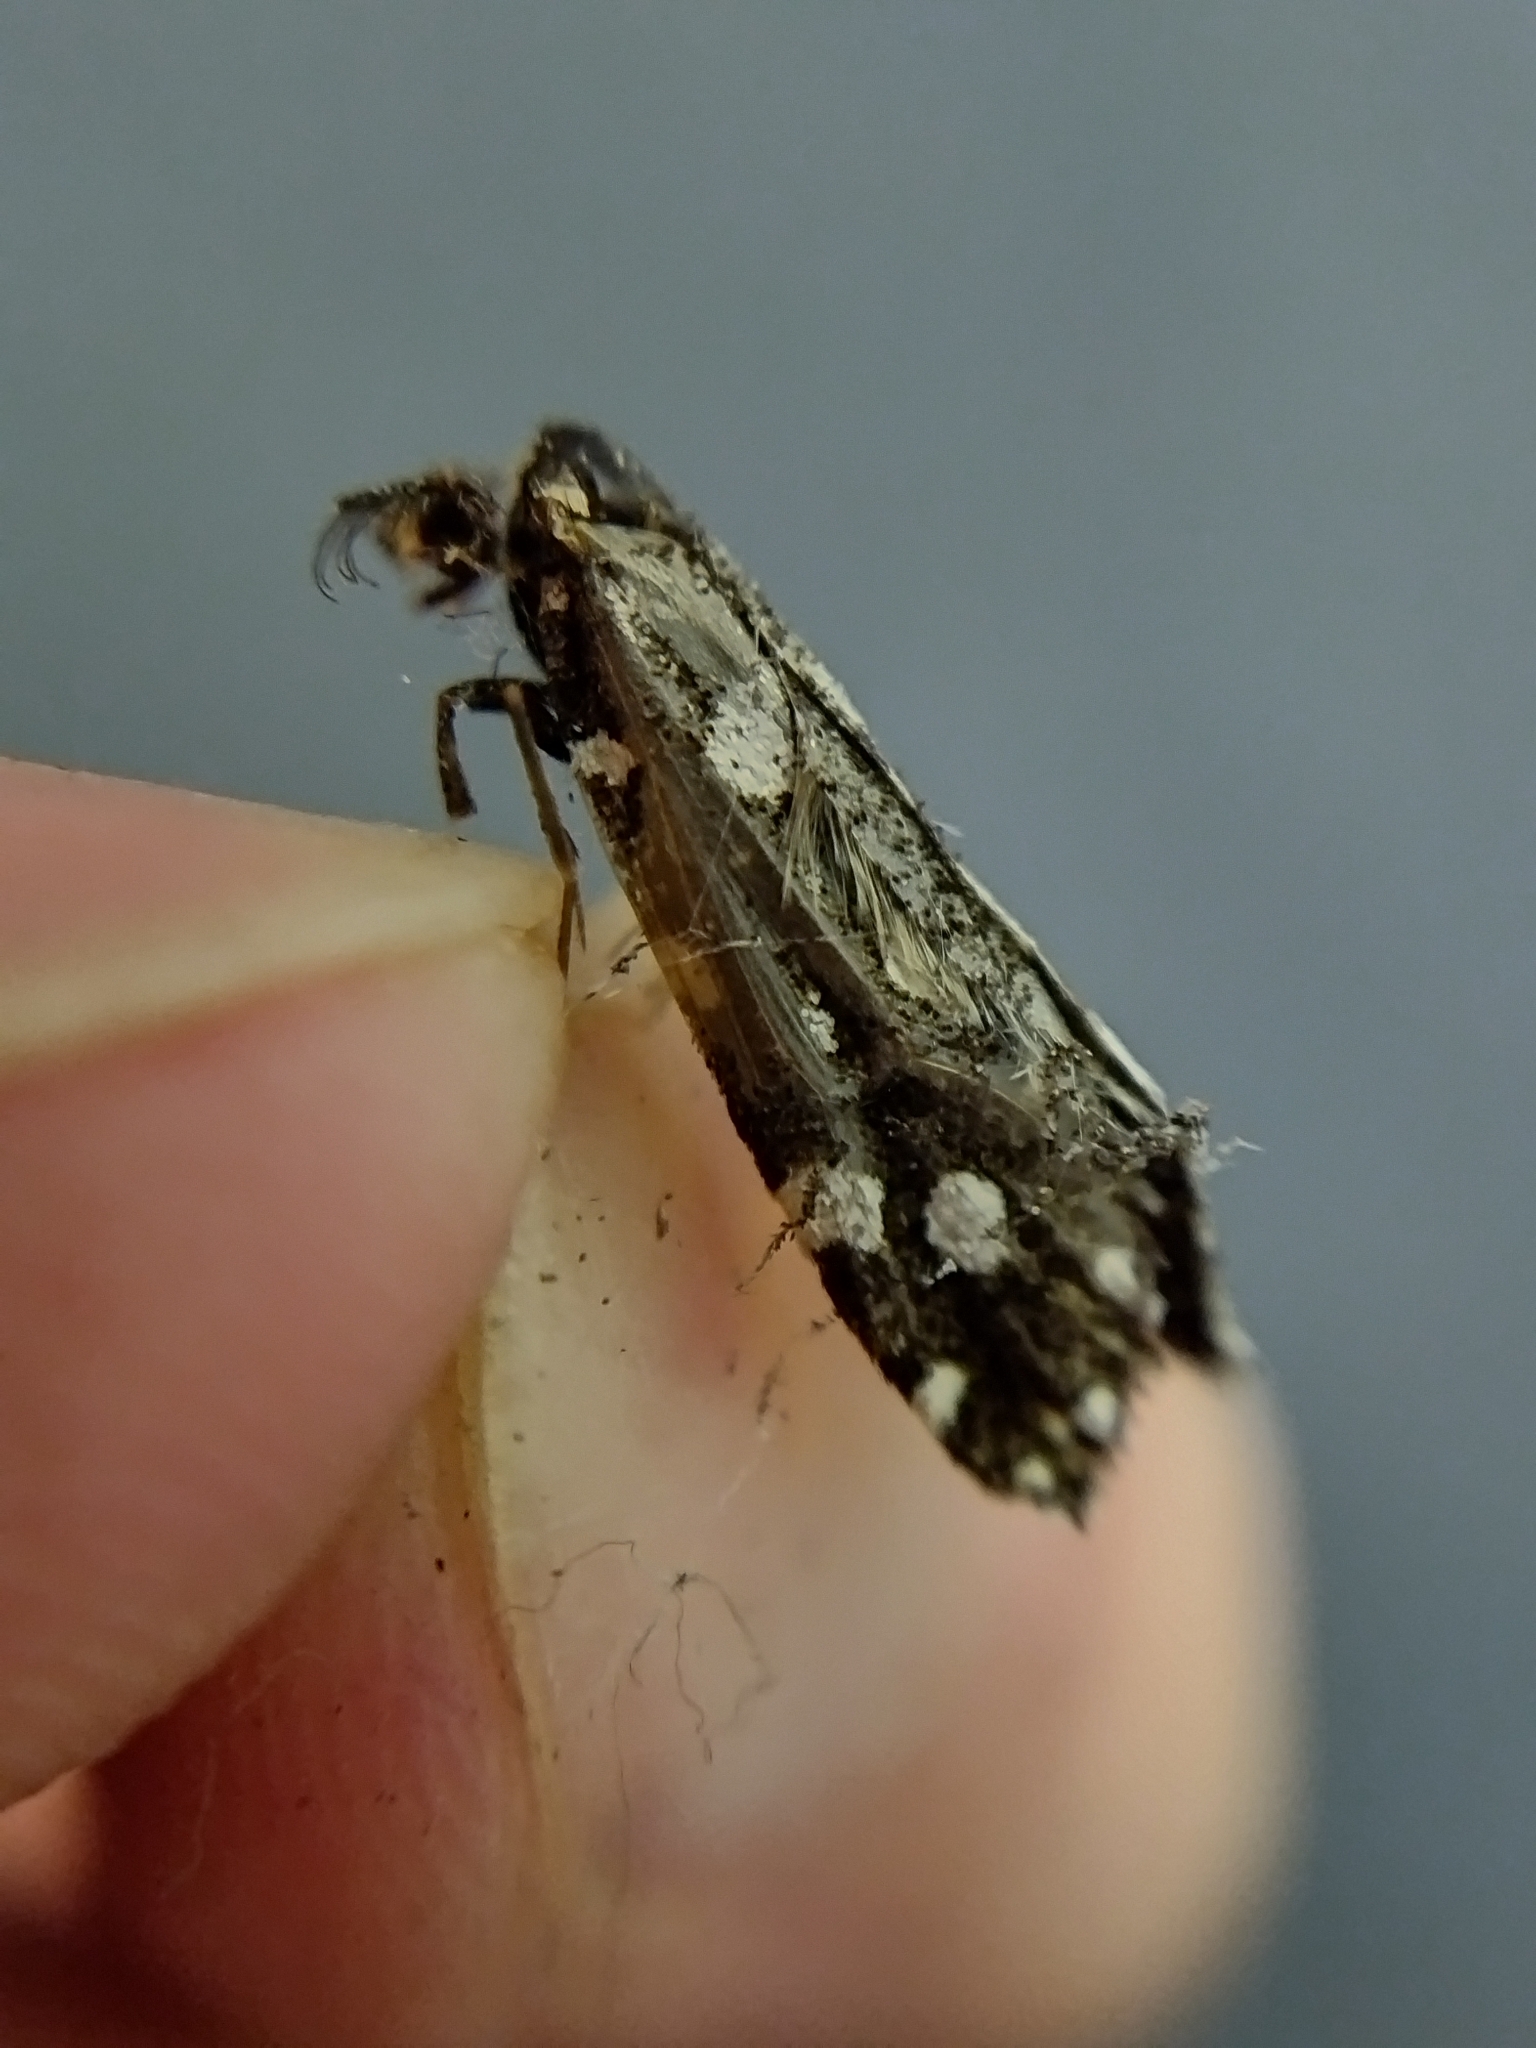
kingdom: Animalia
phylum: Arthropoda
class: Insecta
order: Lepidoptera
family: Tineidae
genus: Euplocamus
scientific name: Euplocamus anthracinalis
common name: Black clothes
